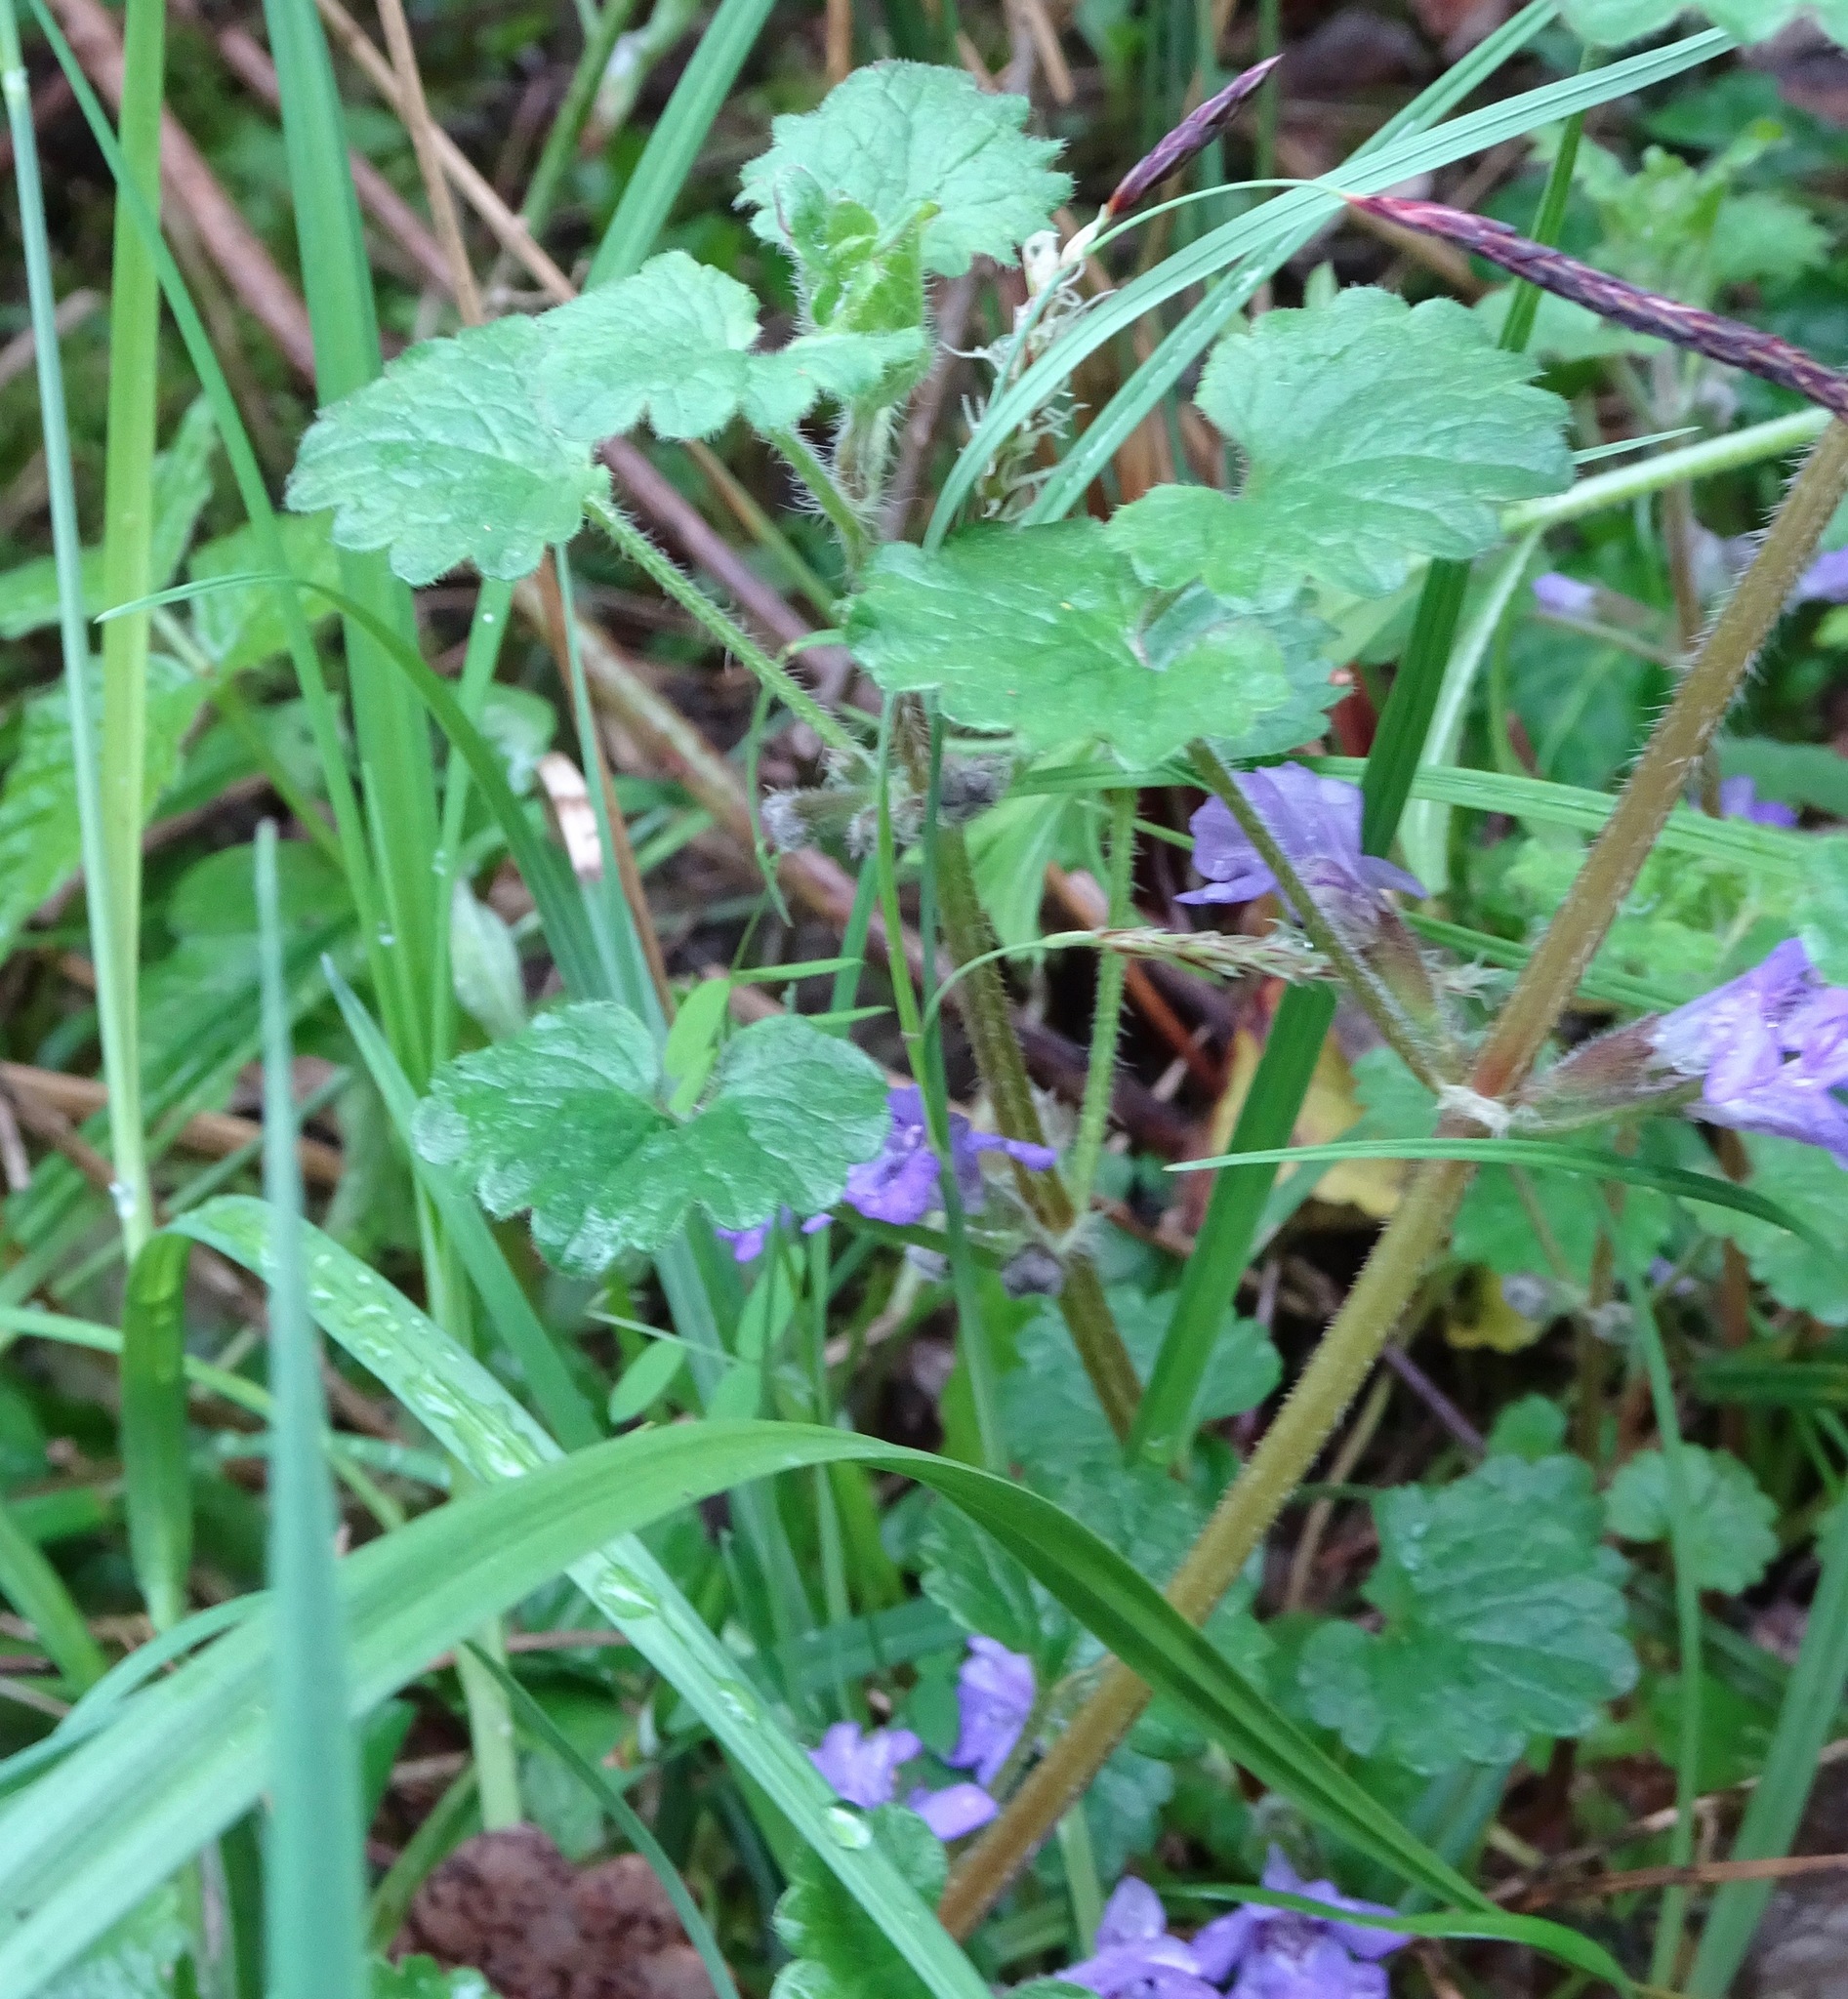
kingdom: Plantae
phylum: Tracheophyta
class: Magnoliopsida
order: Lamiales
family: Lamiaceae
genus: Glechoma
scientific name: Glechoma hederacea
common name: Ground ivy
